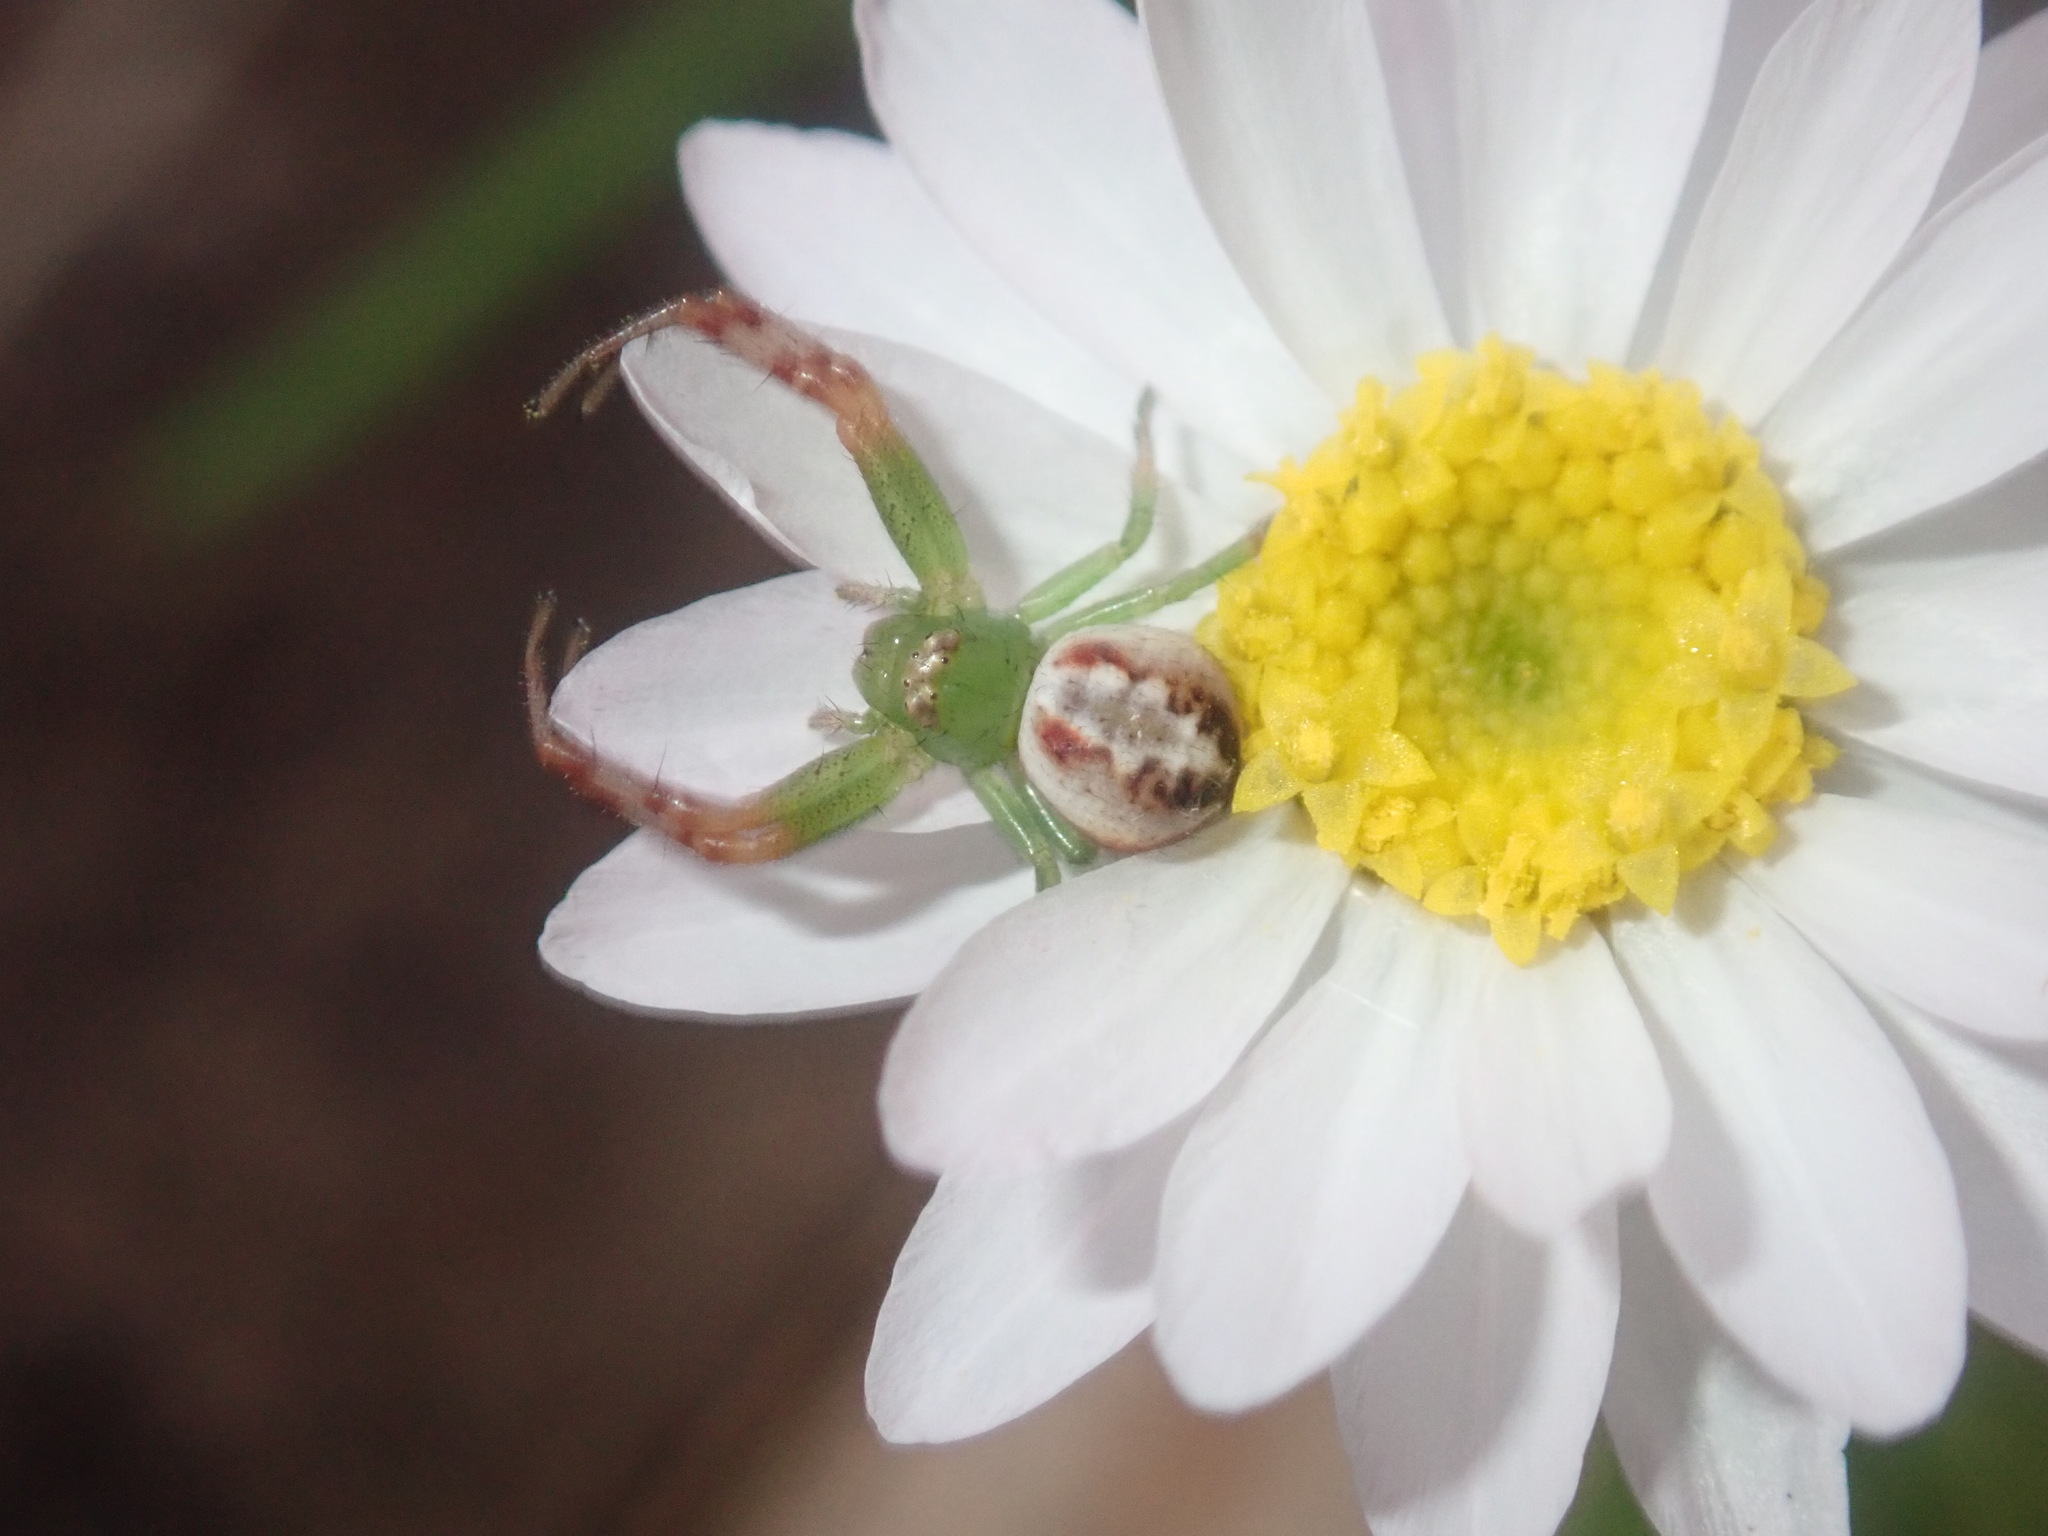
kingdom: Animalia
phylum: Arthropoda
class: Arachnida
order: Araneae
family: Thomisidae
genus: Australomisidia
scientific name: Australomisidia rosea
